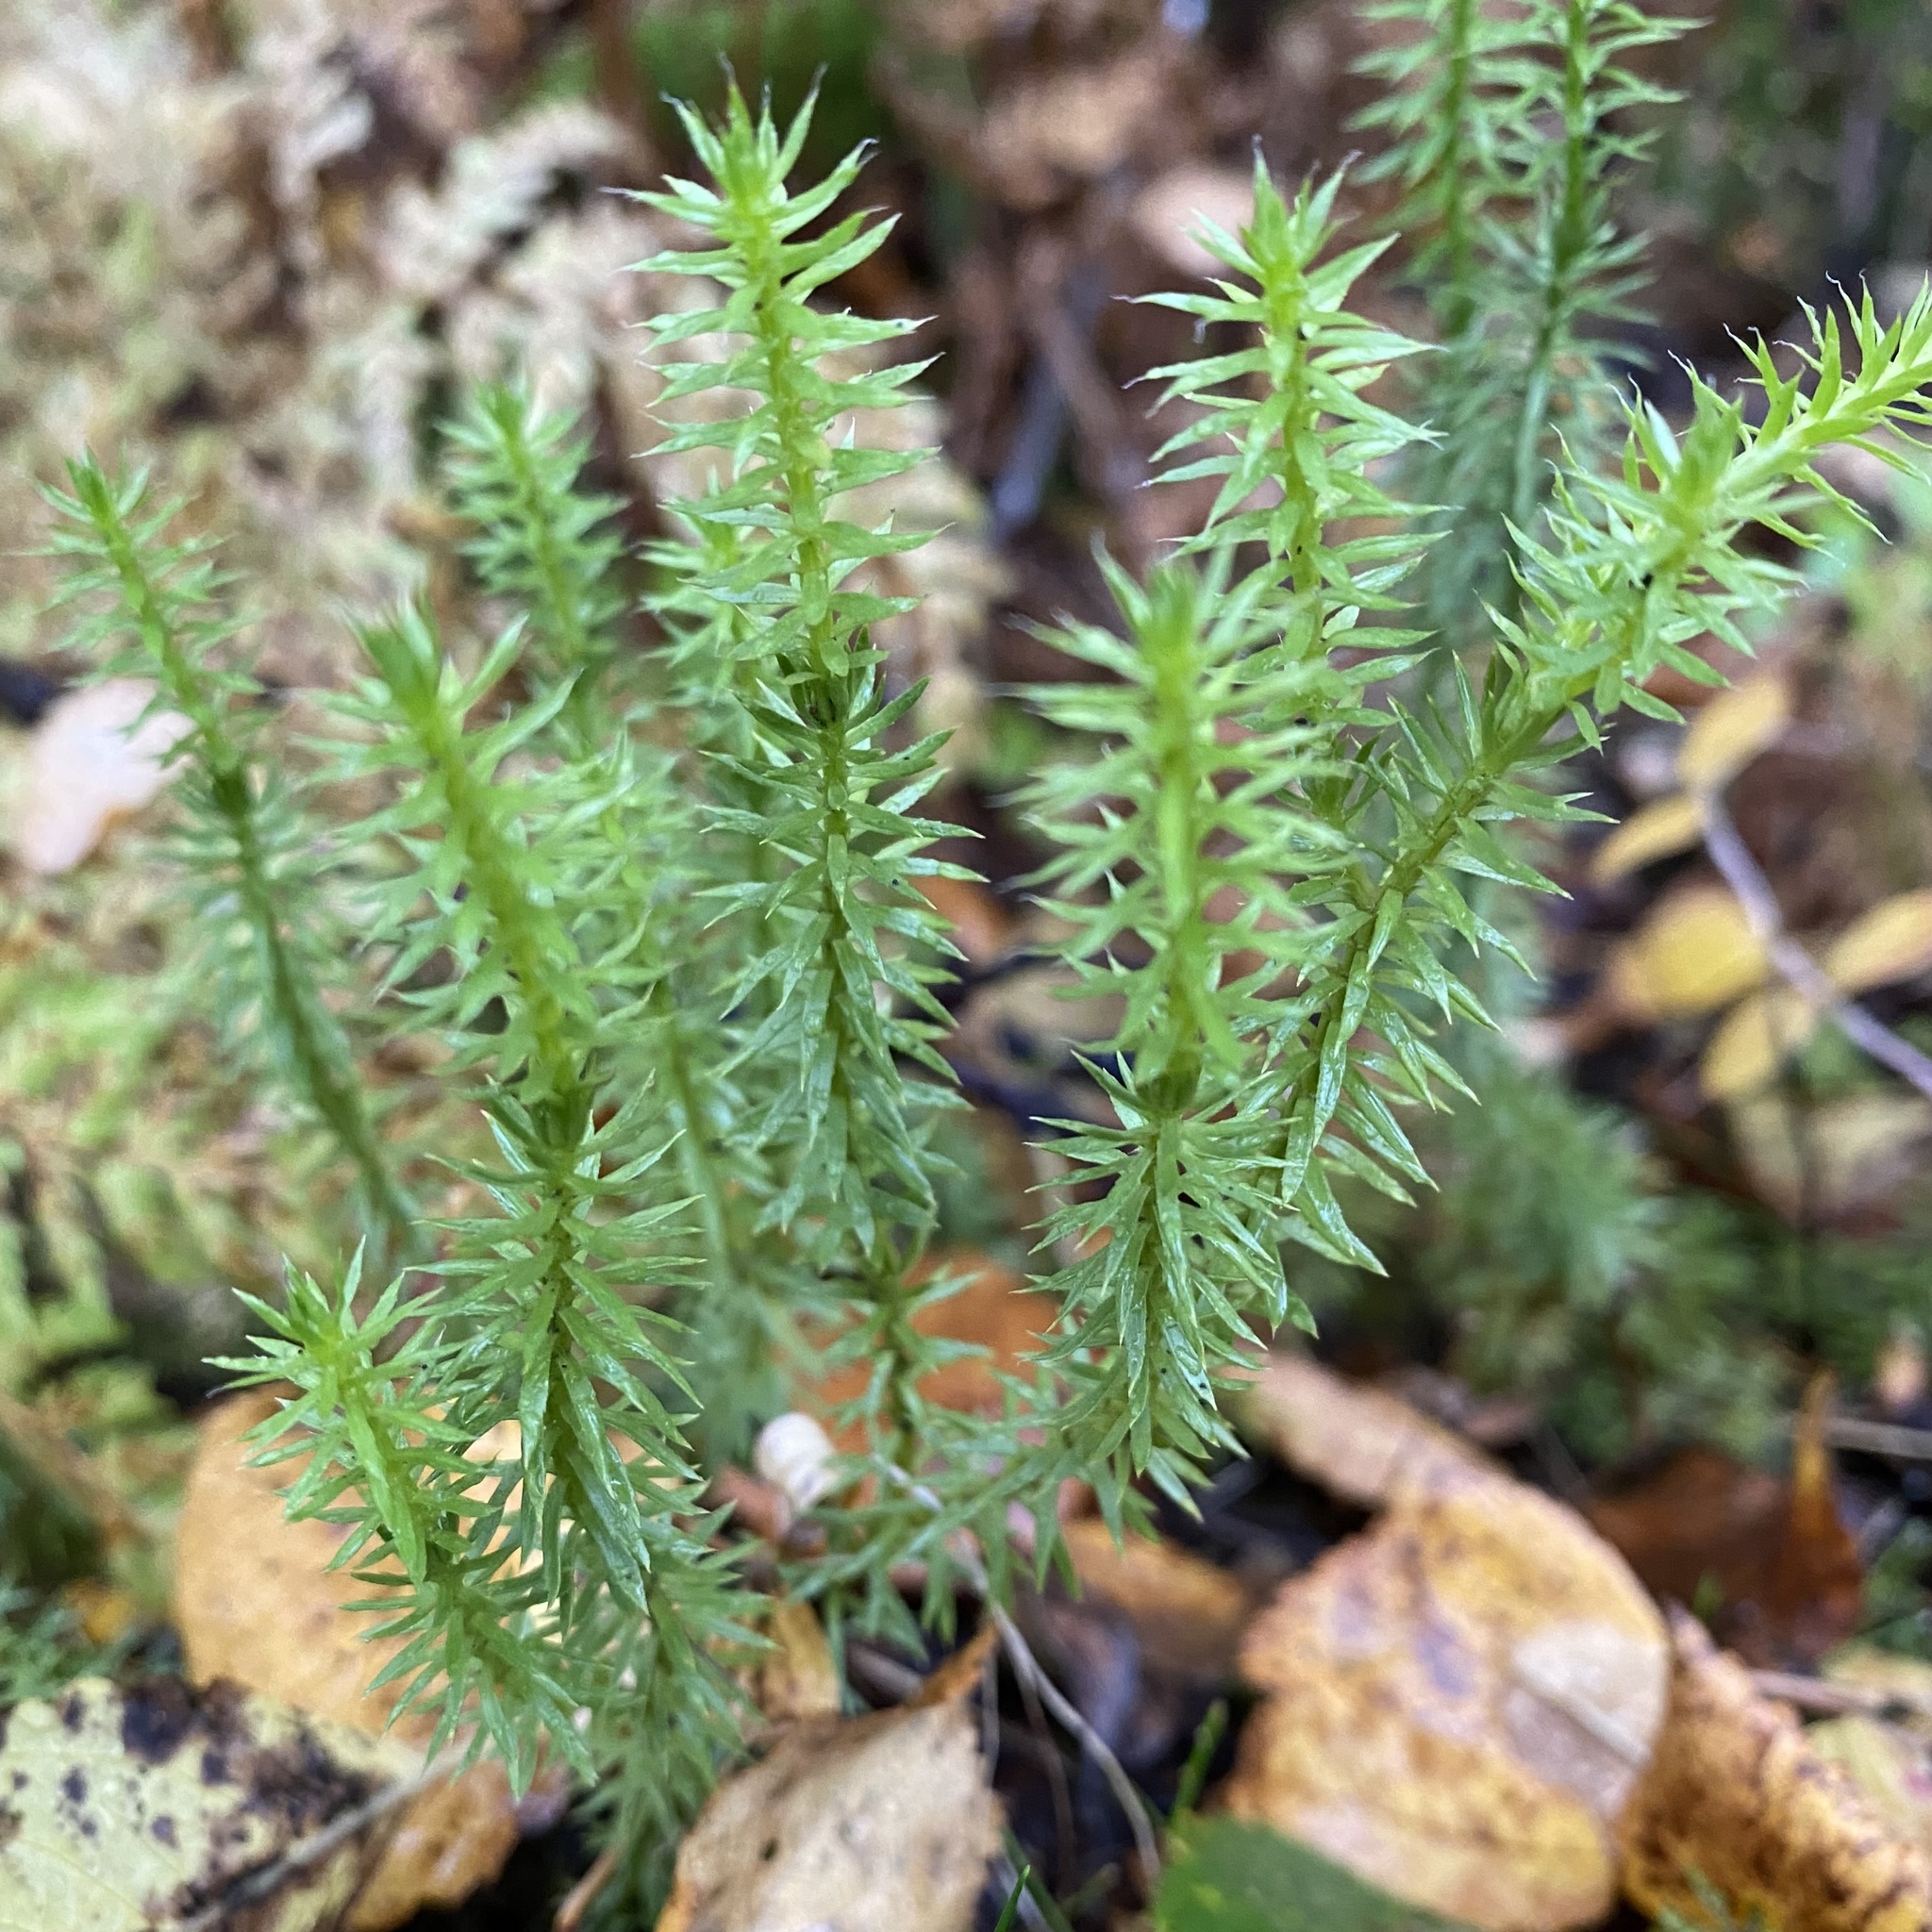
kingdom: Plantae
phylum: Tracheophyta
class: Lycopodiopsida
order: Lycopodiales
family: Lycopodiaceae
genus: Spinulum
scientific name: Spinulum annotinum
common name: Interrupted club-moss
